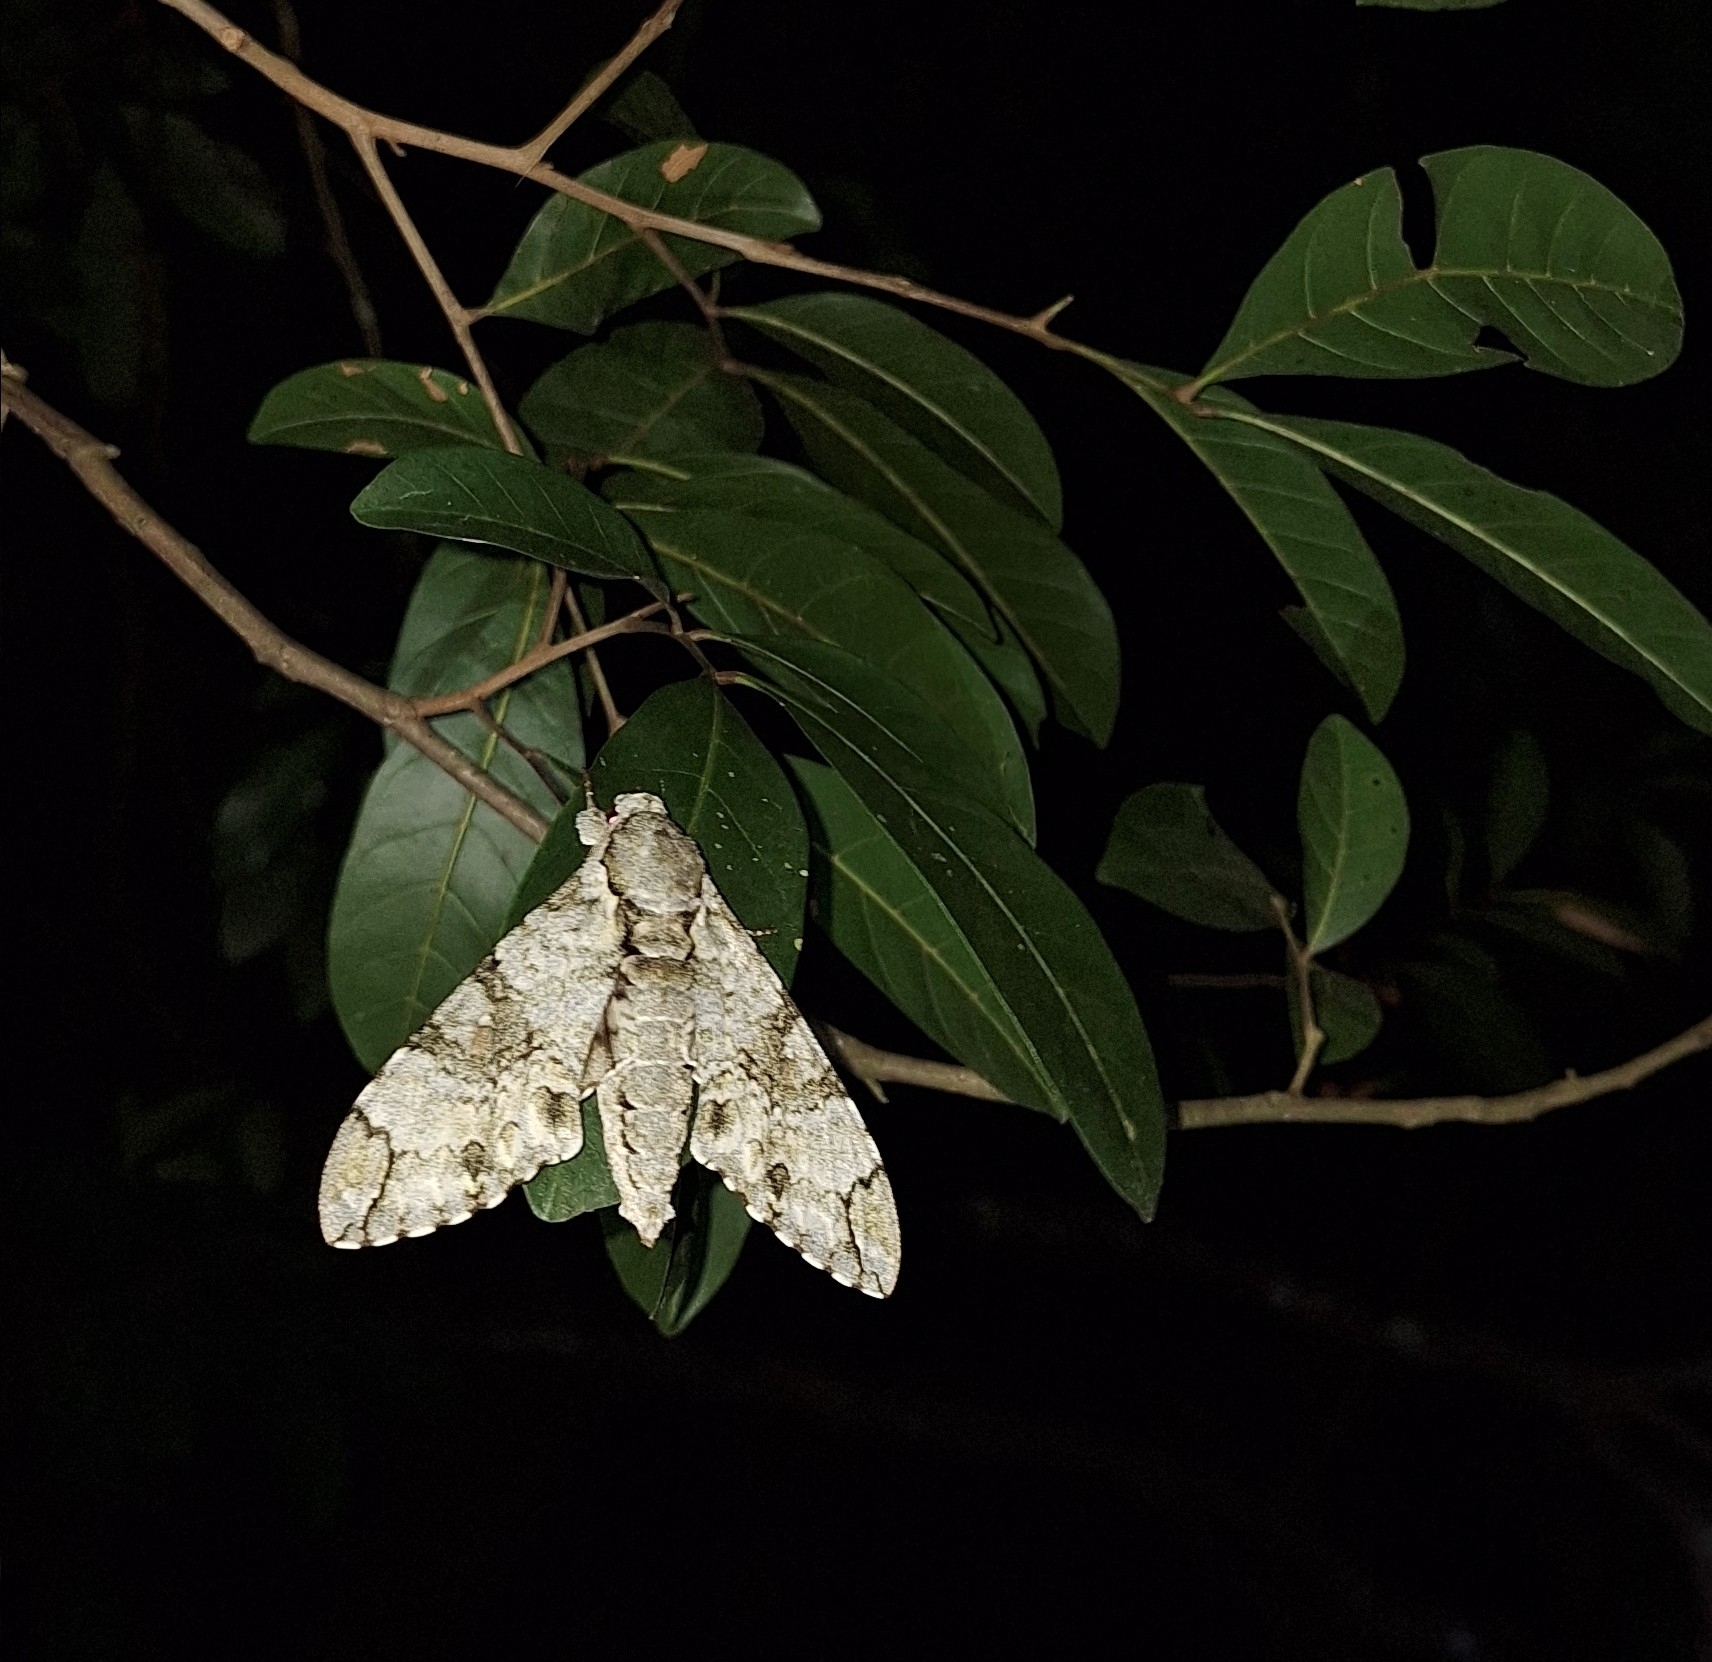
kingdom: Animalia
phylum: Arthropoda
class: Insecta
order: Lepidoptera
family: Sphingidae
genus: Manduca
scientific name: Manduca florestan
